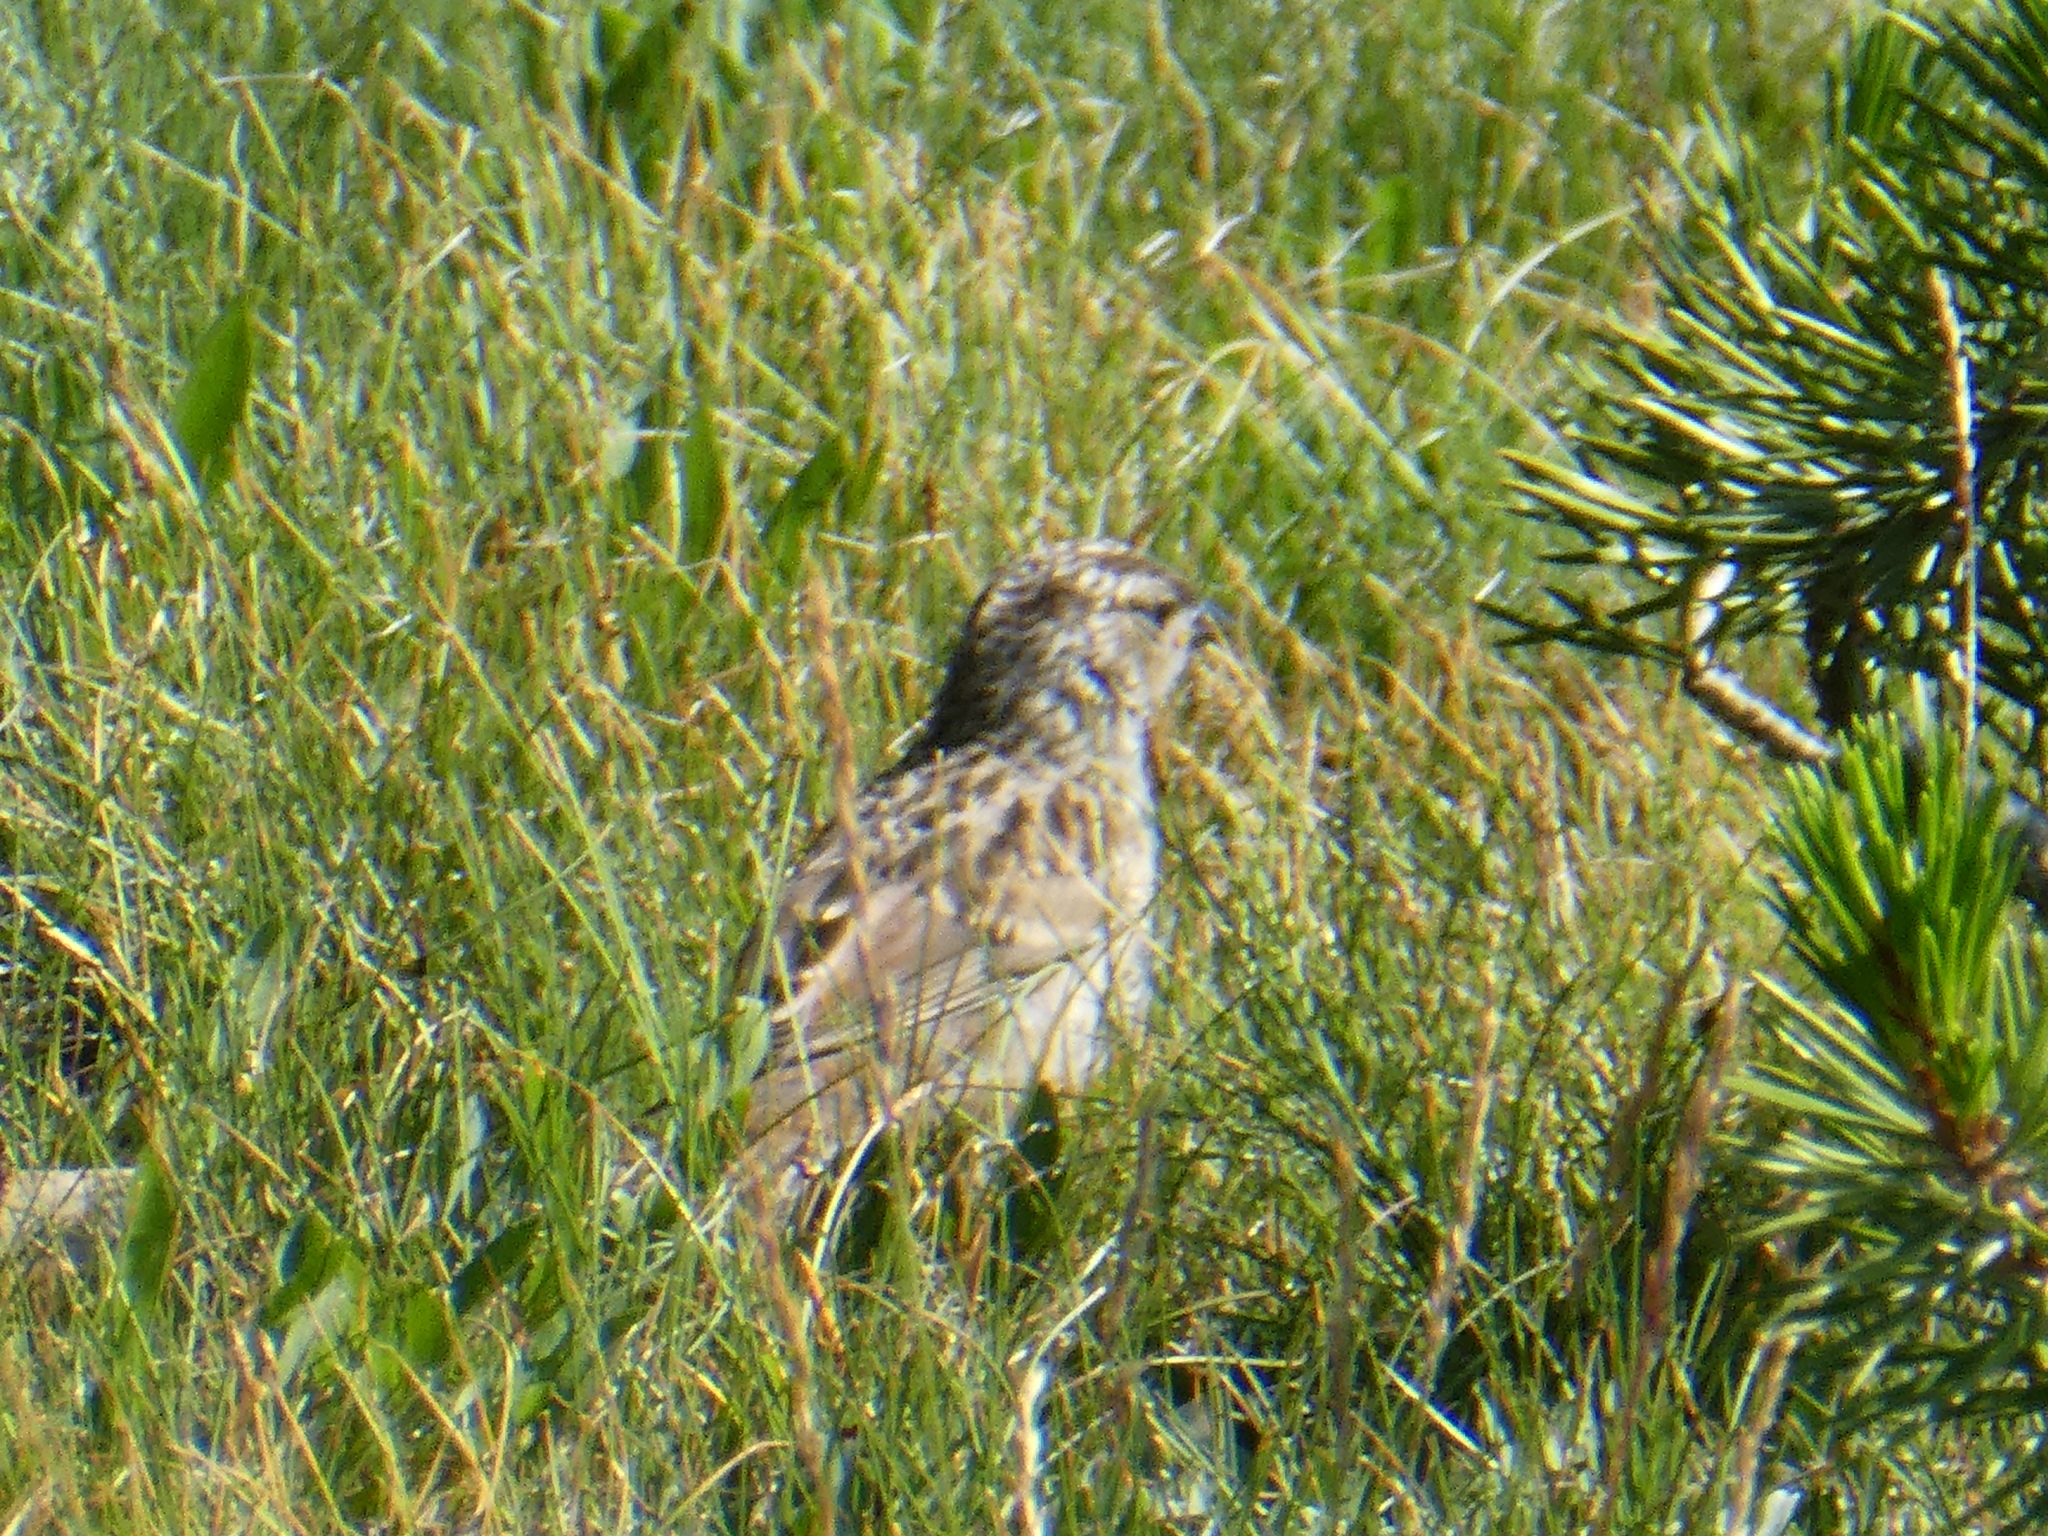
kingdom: Animalia
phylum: Chordata
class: Aves
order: Passeriformes
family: Passerellidae
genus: Zonotrichia
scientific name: Zonotrichia leucophrys
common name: White-crowned sparrow
